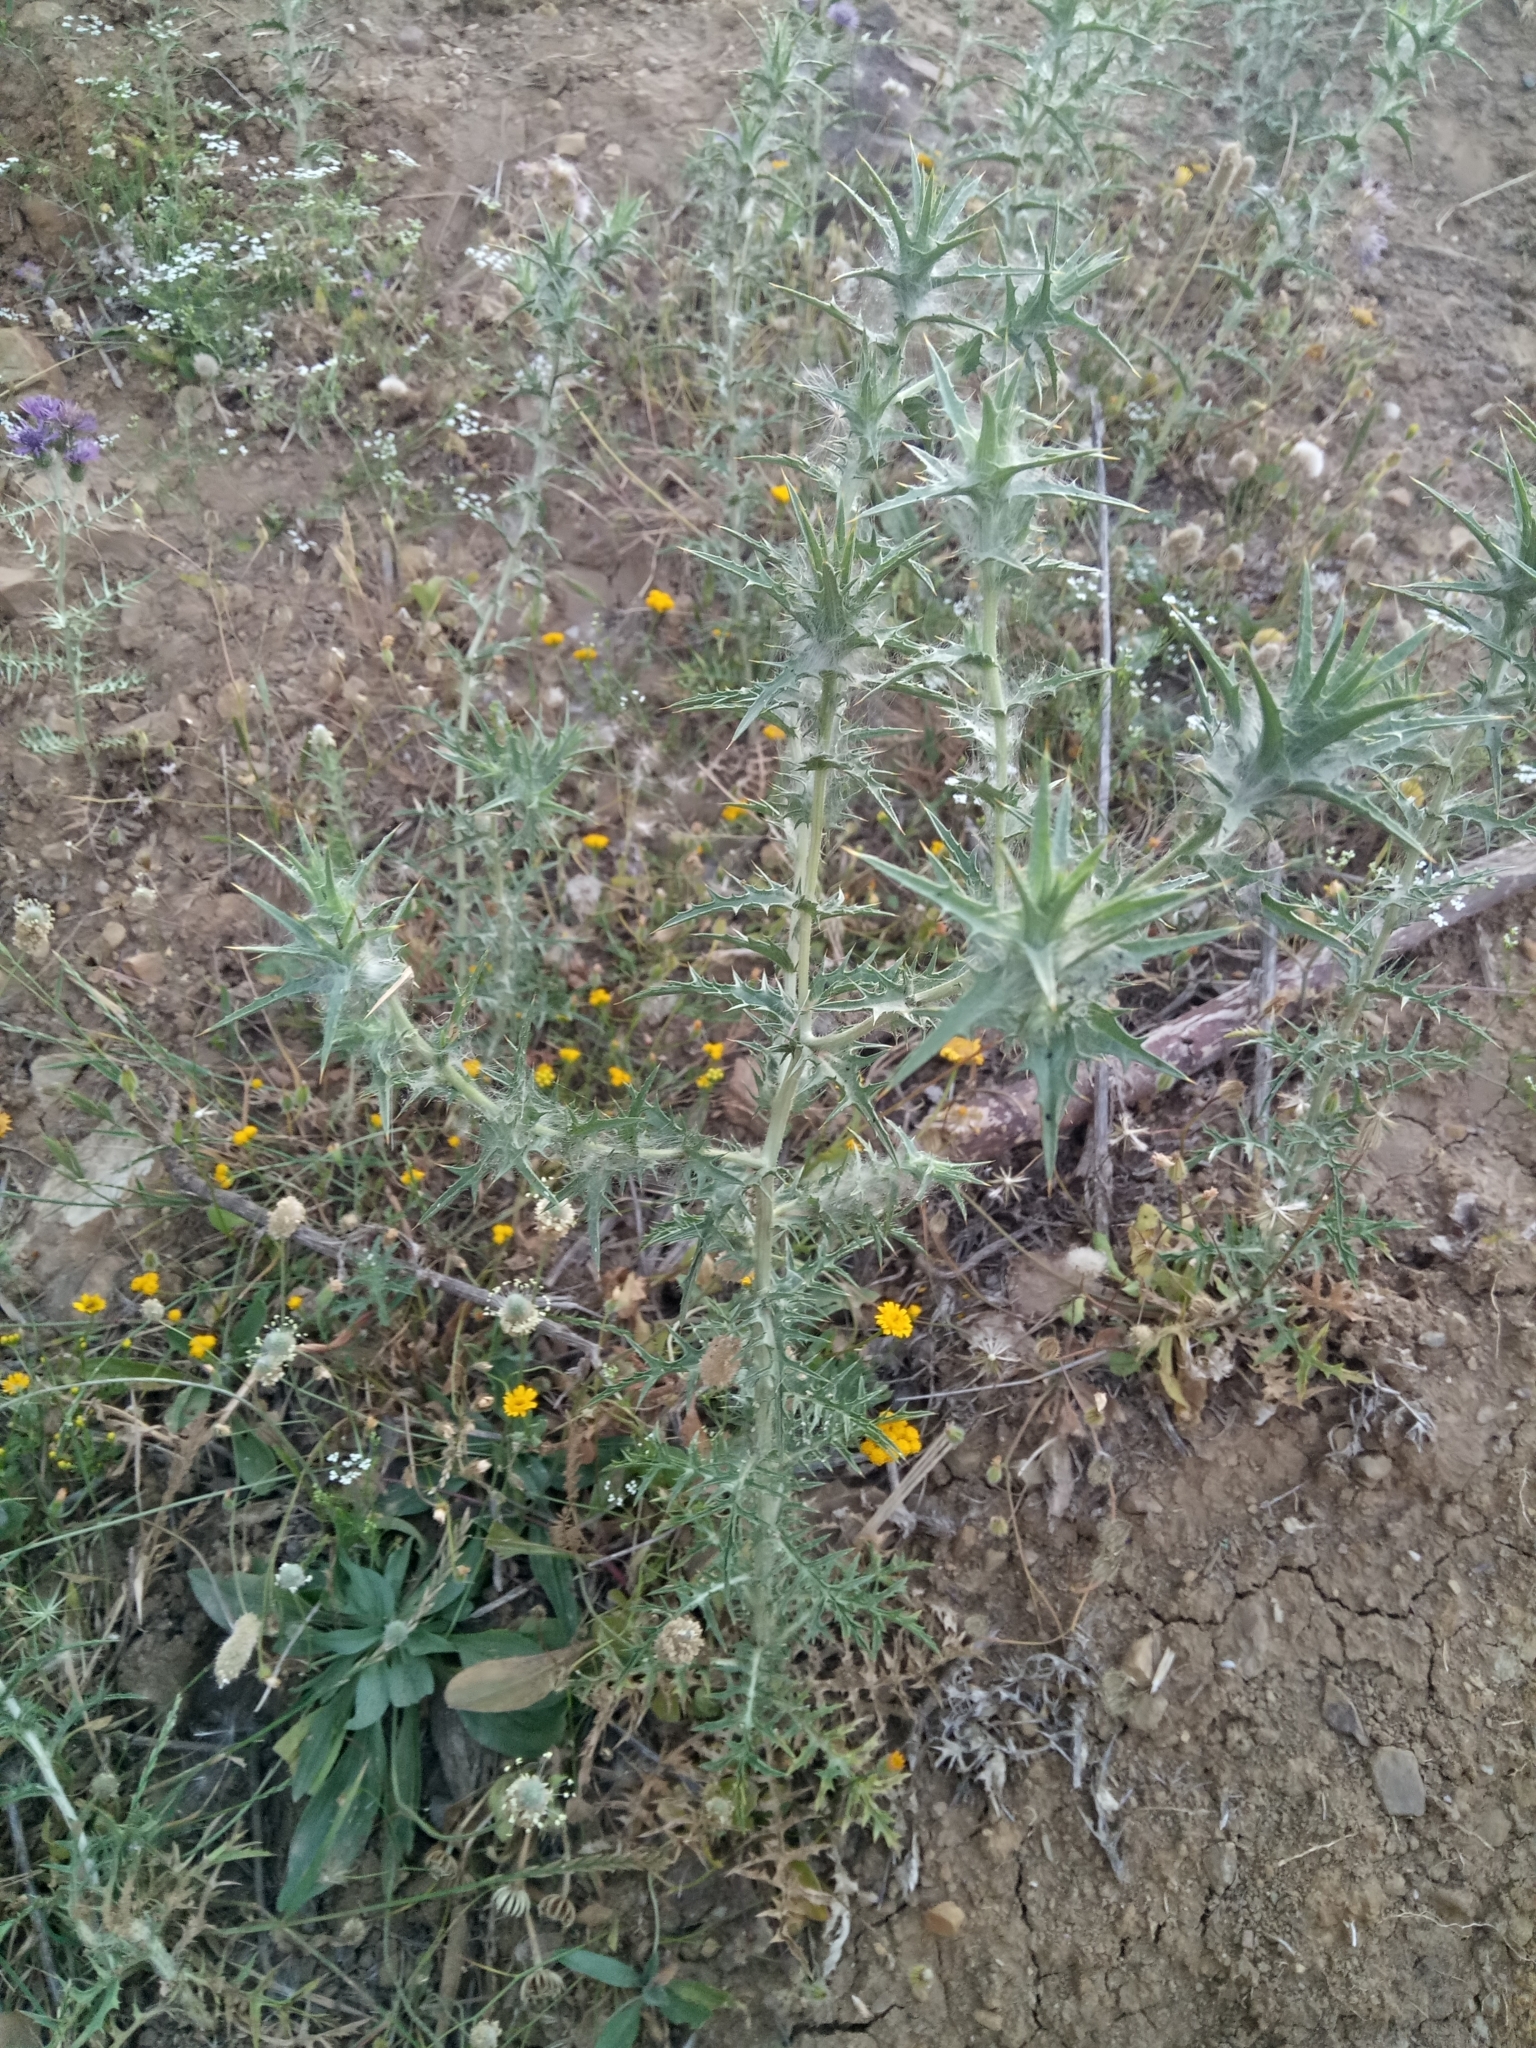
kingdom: Plantae
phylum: Tracheophyta
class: Magnoliopsida
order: Asterales
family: Asteraceae
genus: Carthamus
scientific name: Carthamus lanatus
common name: Downy safflower
